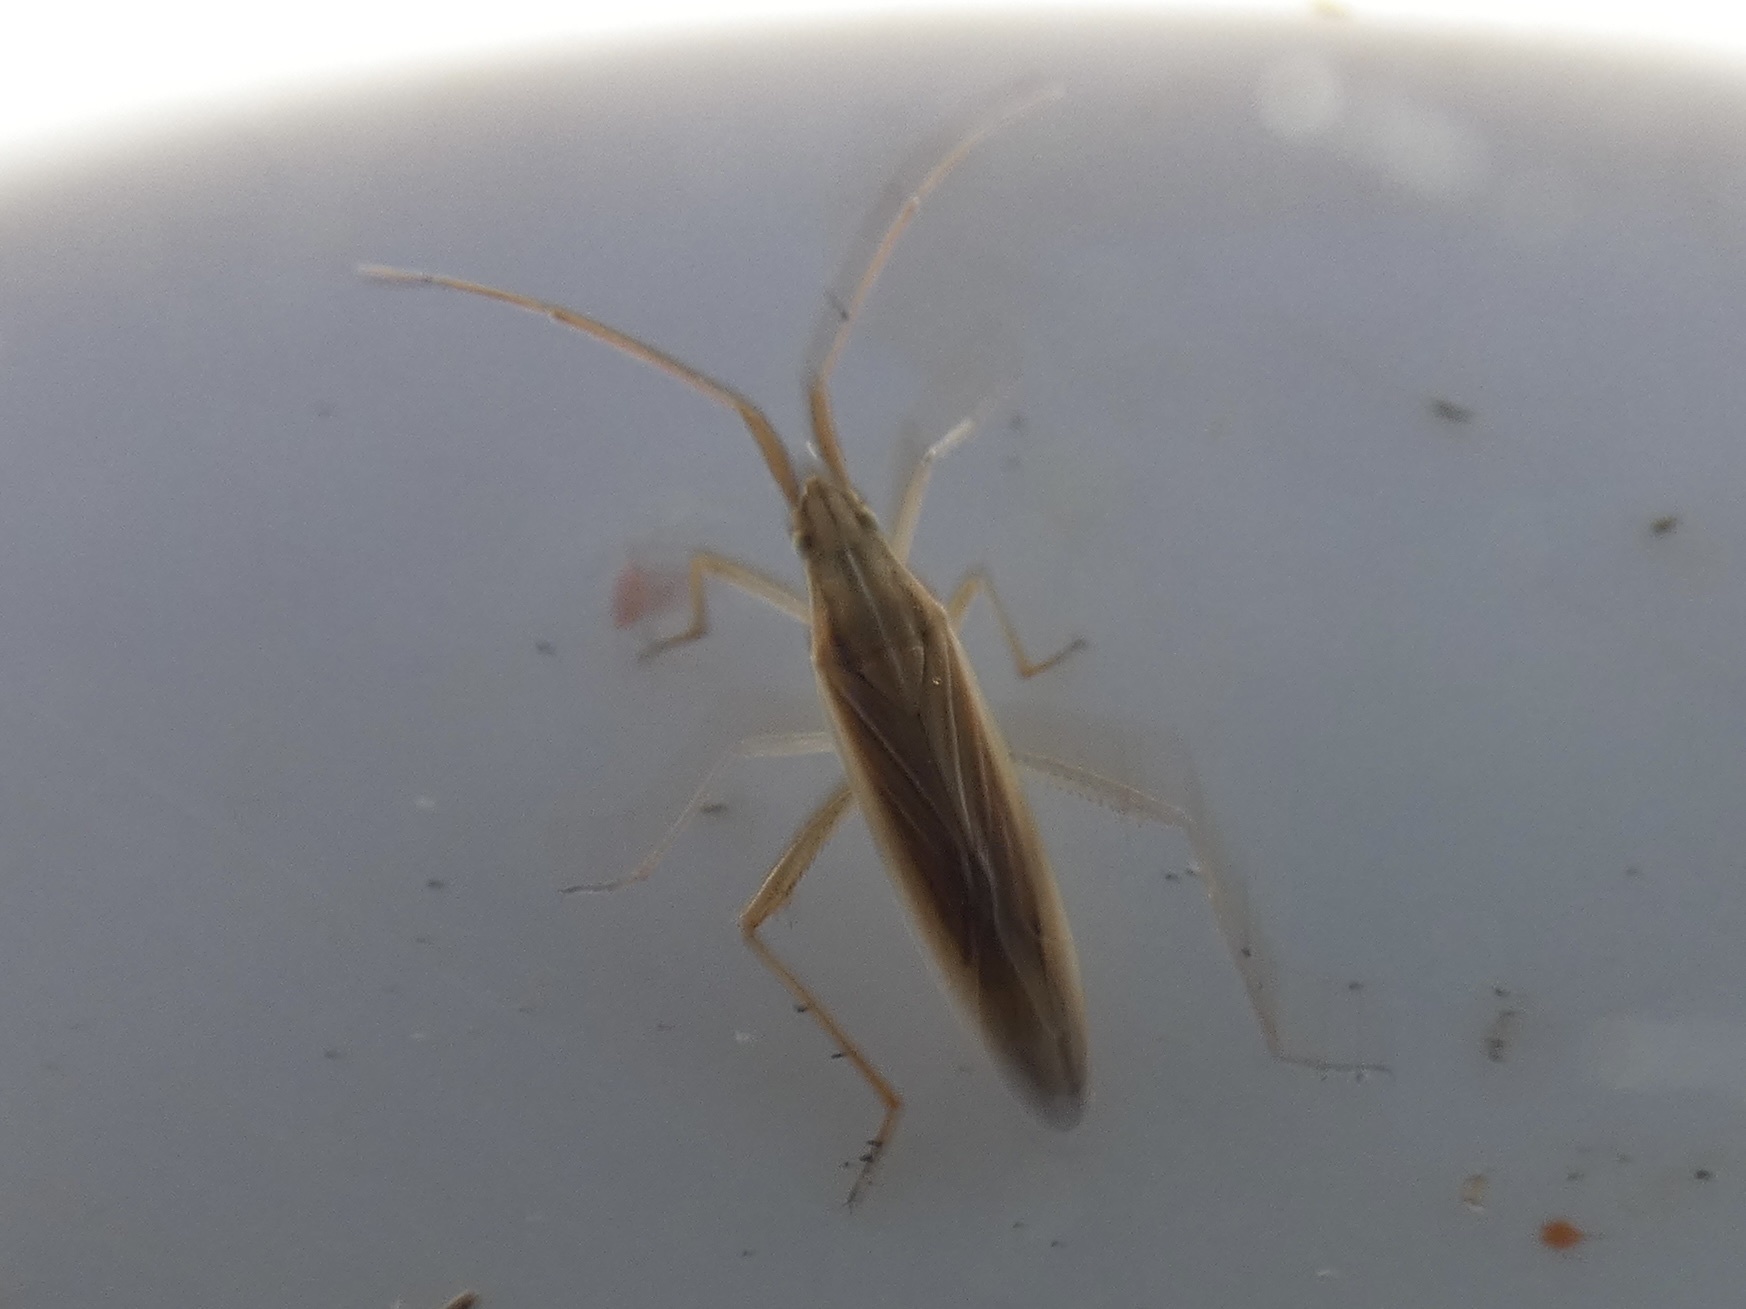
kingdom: Animalia
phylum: Arthropoda
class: Insecta
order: Hemiptera
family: Miridae
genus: Stenodema
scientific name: Stenodema calcarata
